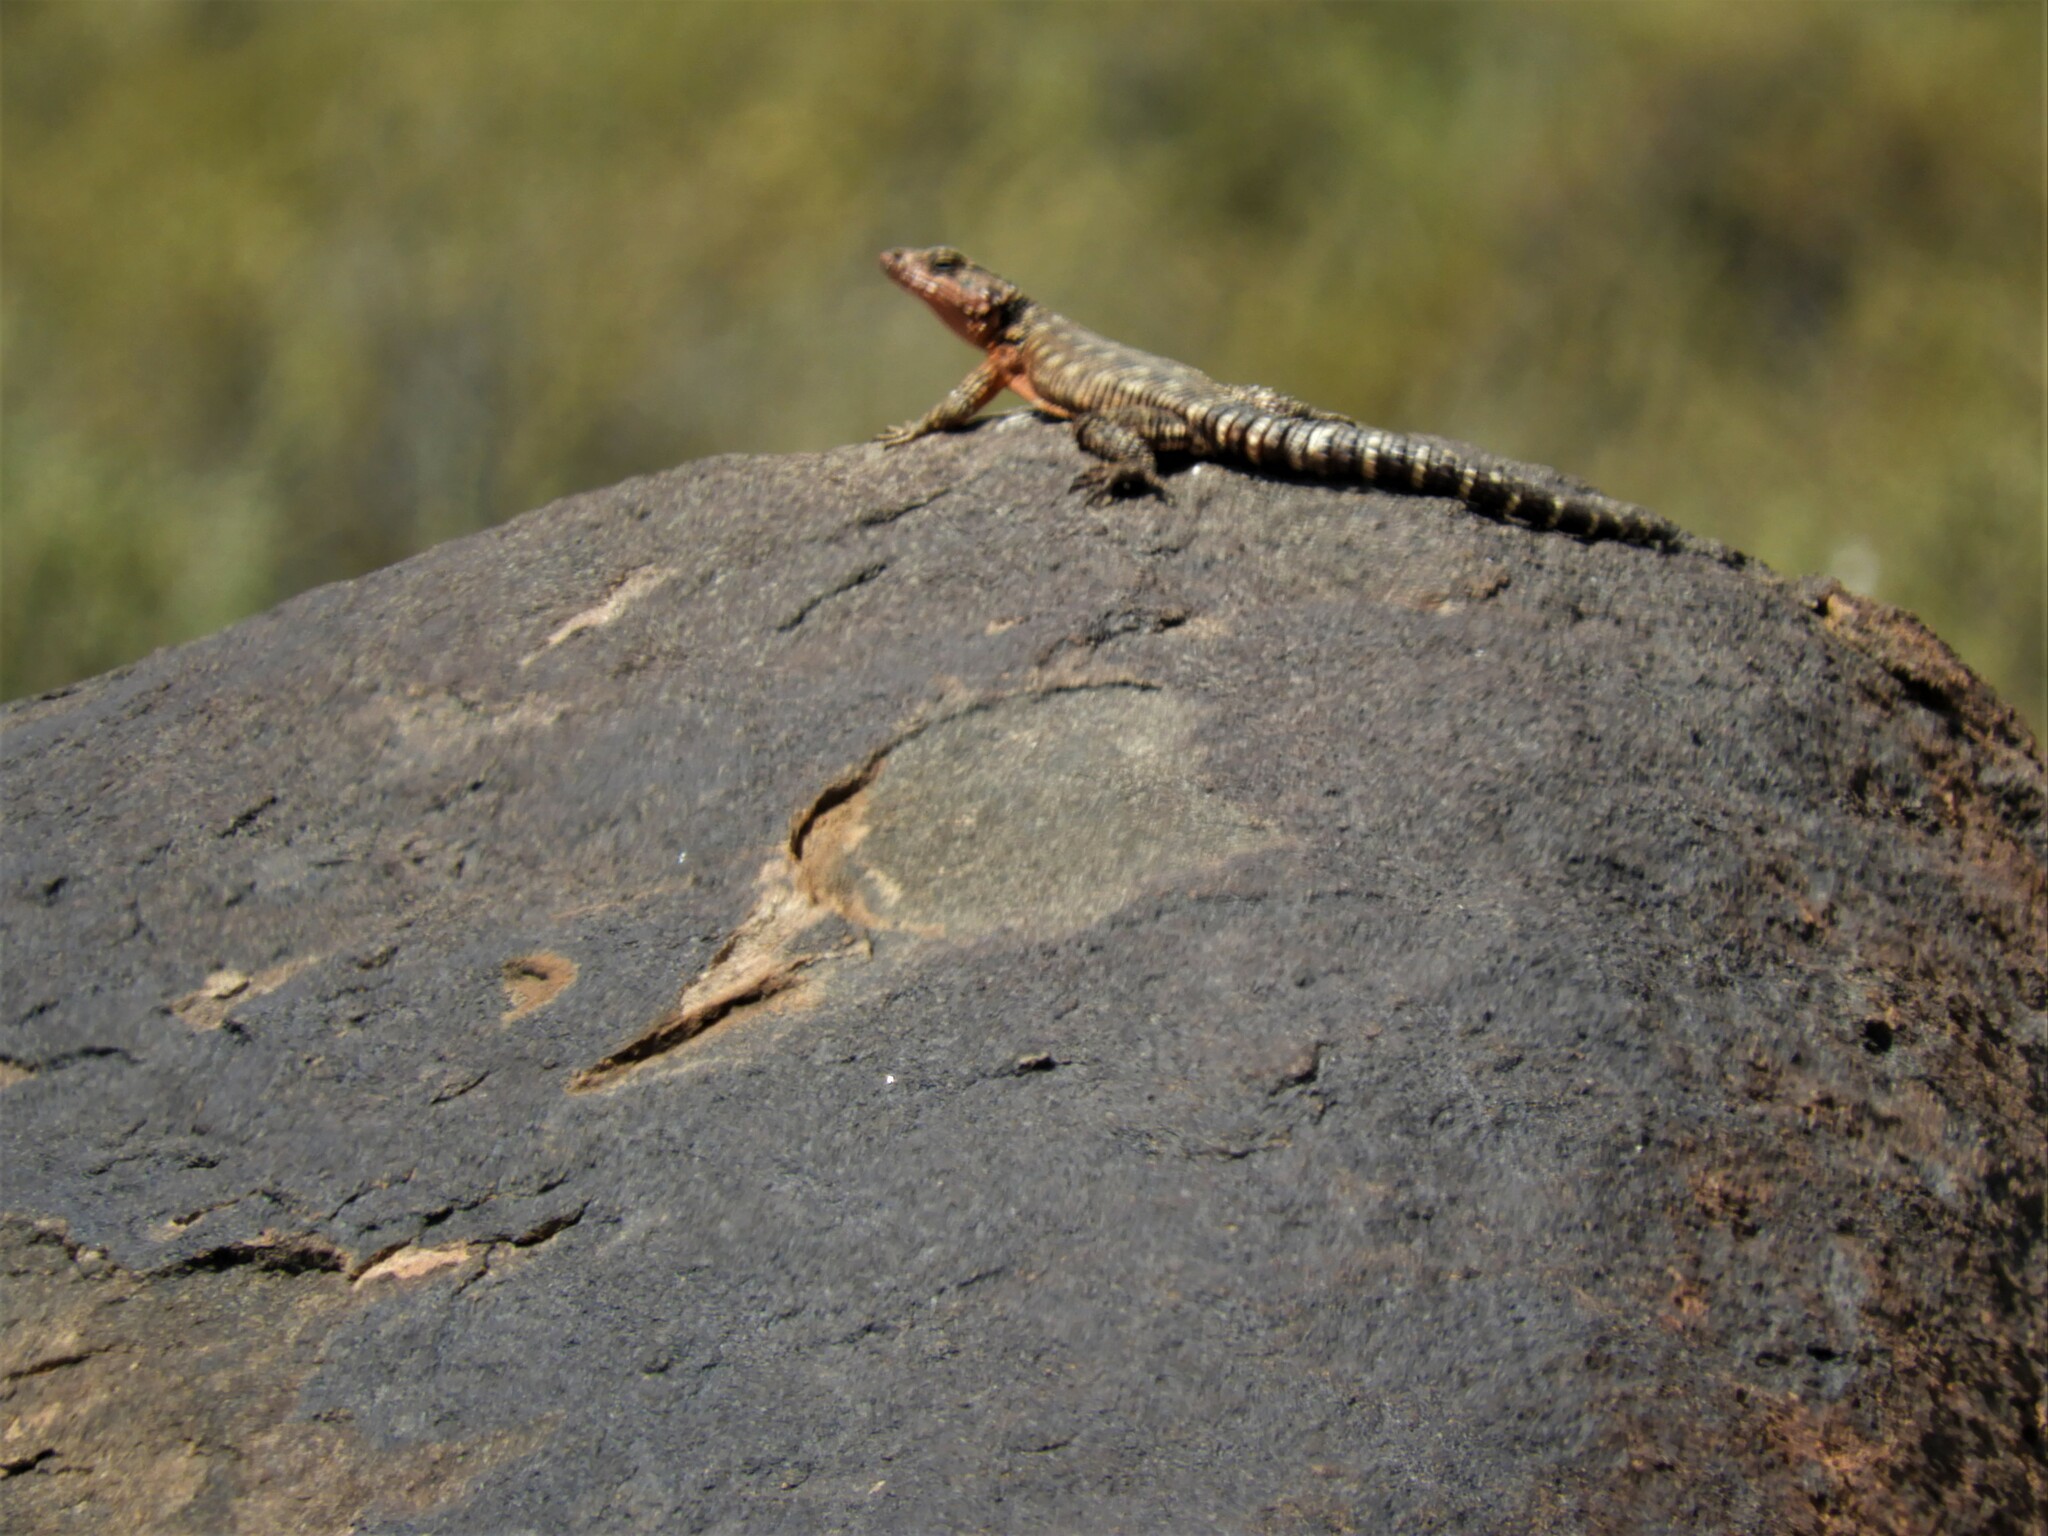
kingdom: Animalia
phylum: Chordata
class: Squamata
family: Cordylidae
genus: Karusasaurus
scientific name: Karusasaurus polyzonus
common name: Karoo girdled lizard
